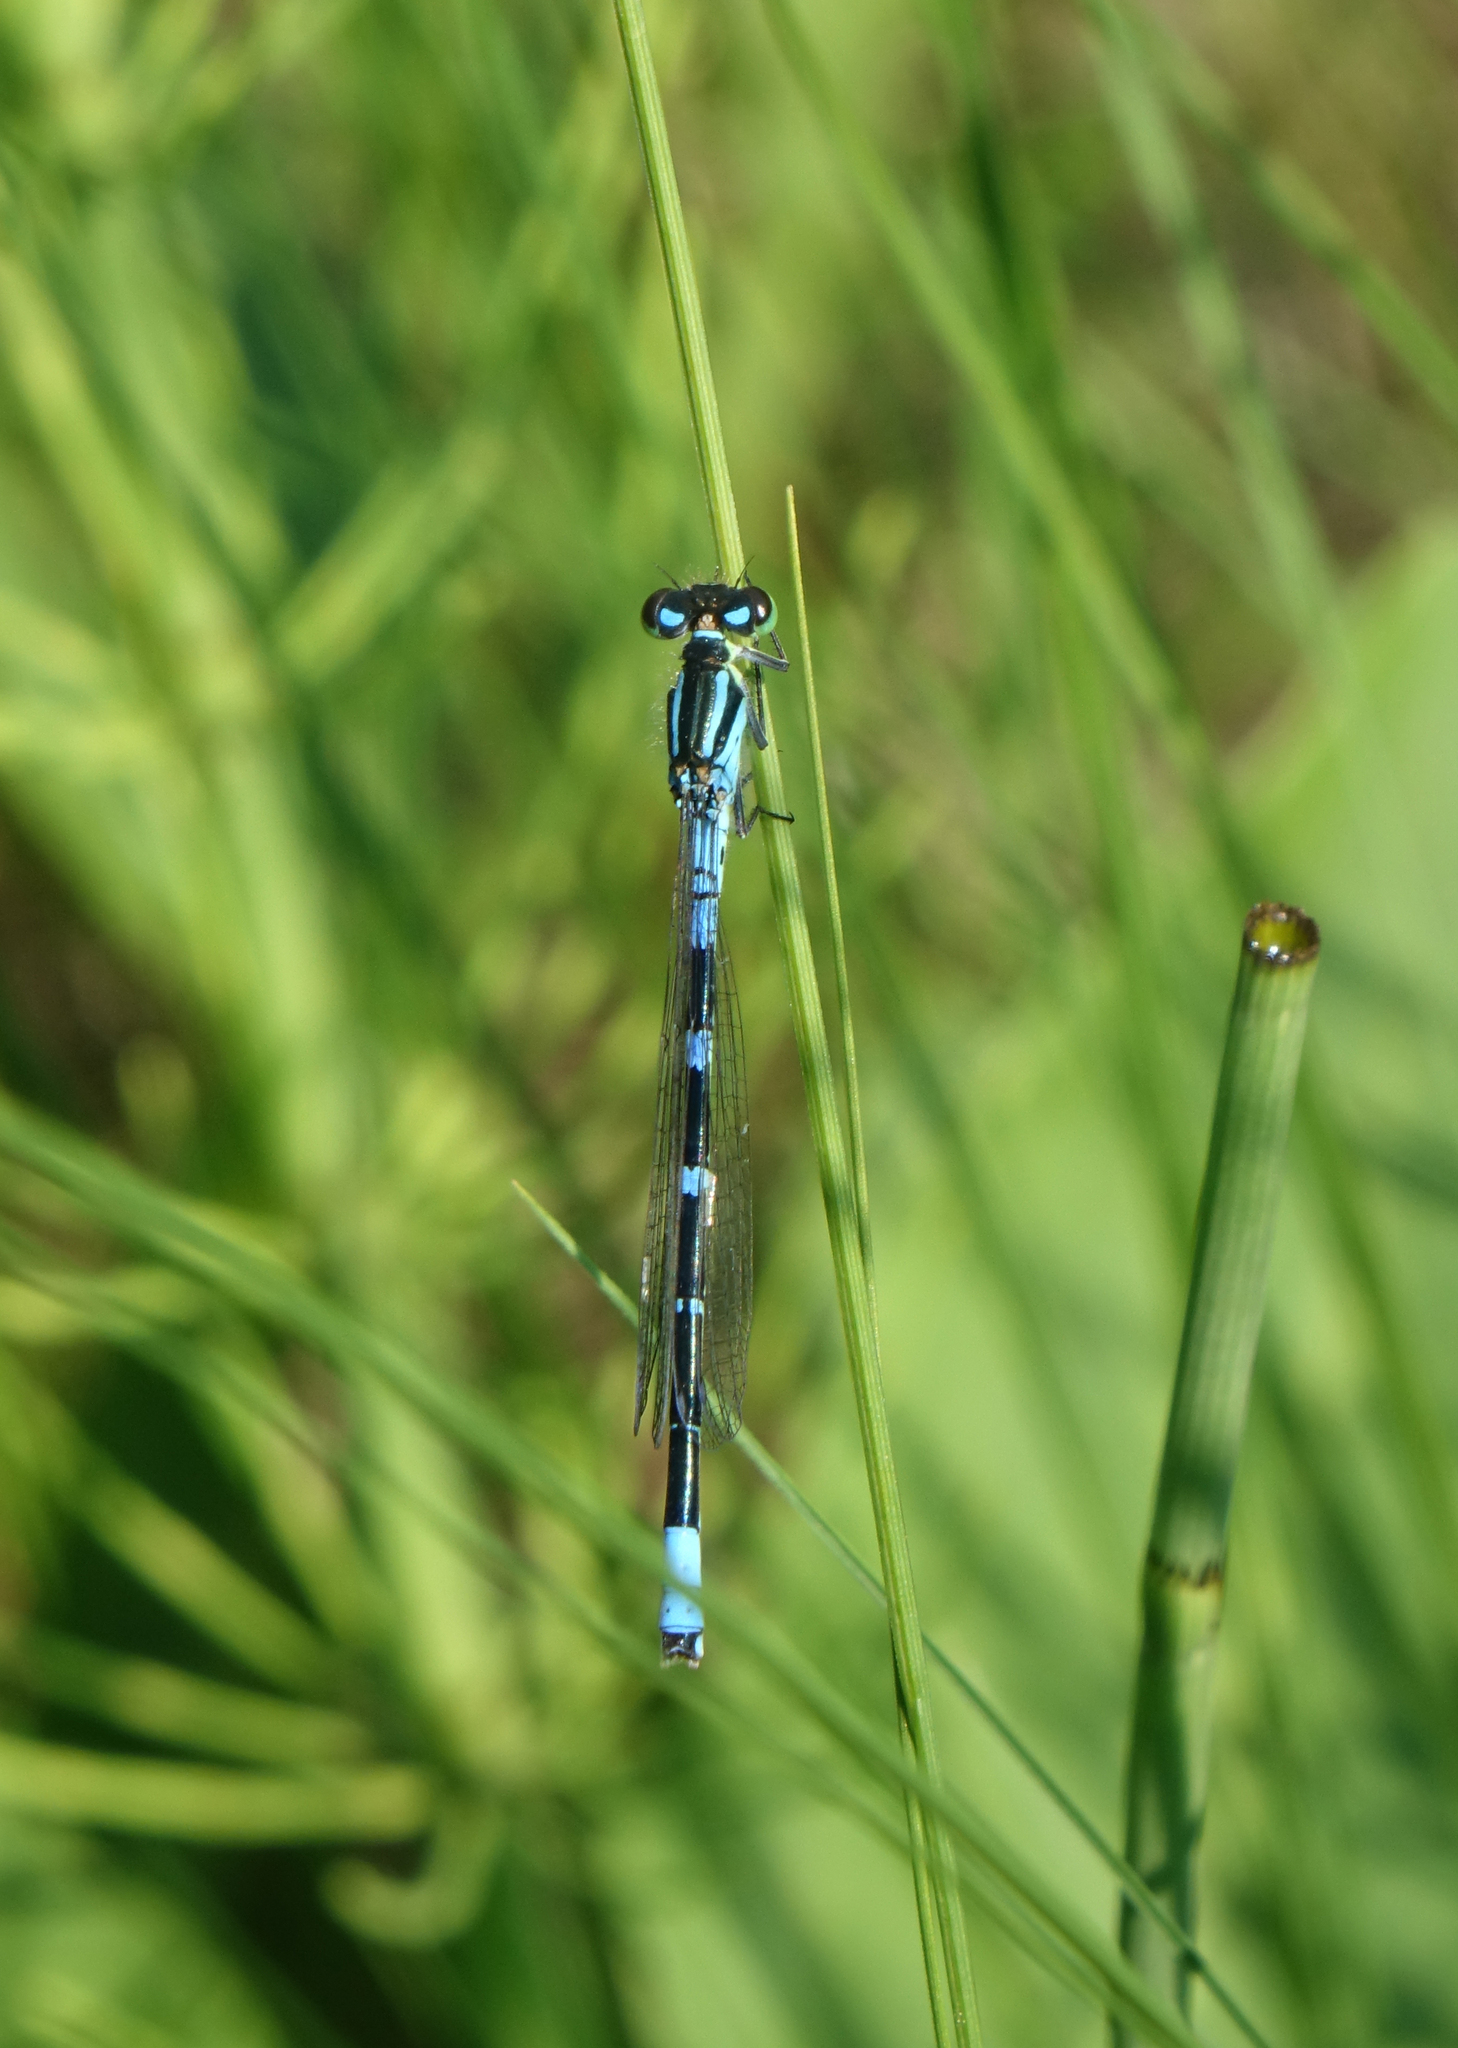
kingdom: Animalia
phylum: Arthropoda
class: Insecta
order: Odonata
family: Coenagrionidae
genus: Coenagrion
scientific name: Coenagrion lunulatum
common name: Irish damselfly
